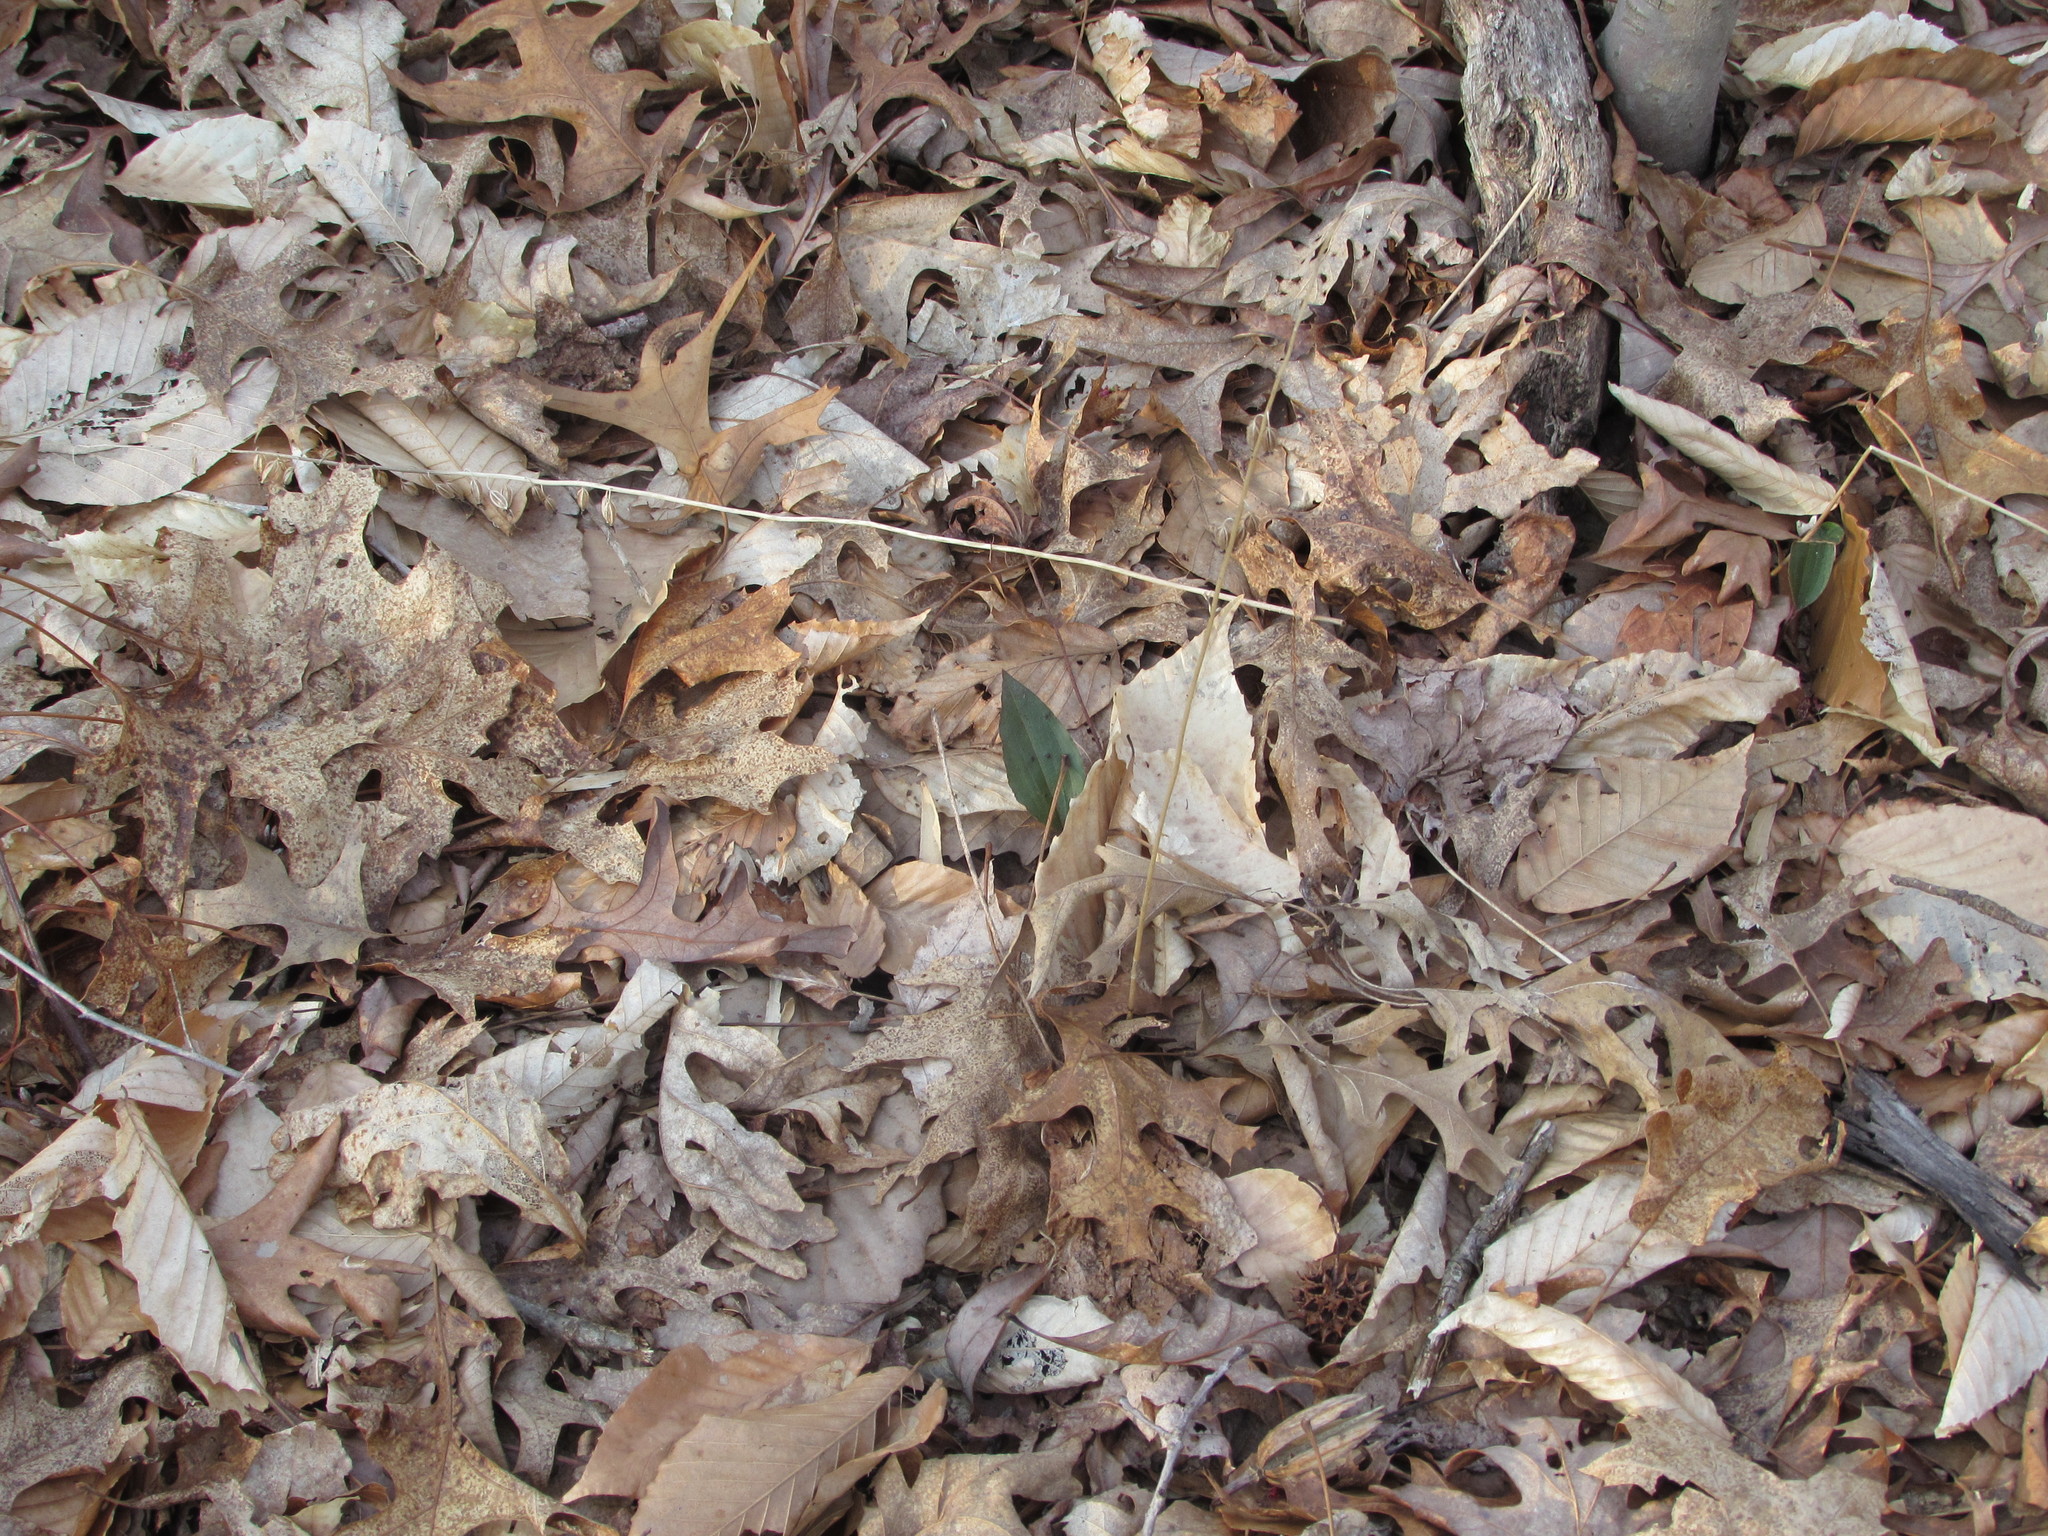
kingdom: Plantae
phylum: Tracheophyta
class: Liliopsida
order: Asparagales
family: Orchidaceae
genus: Tipularia
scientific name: Tipularia discolor
